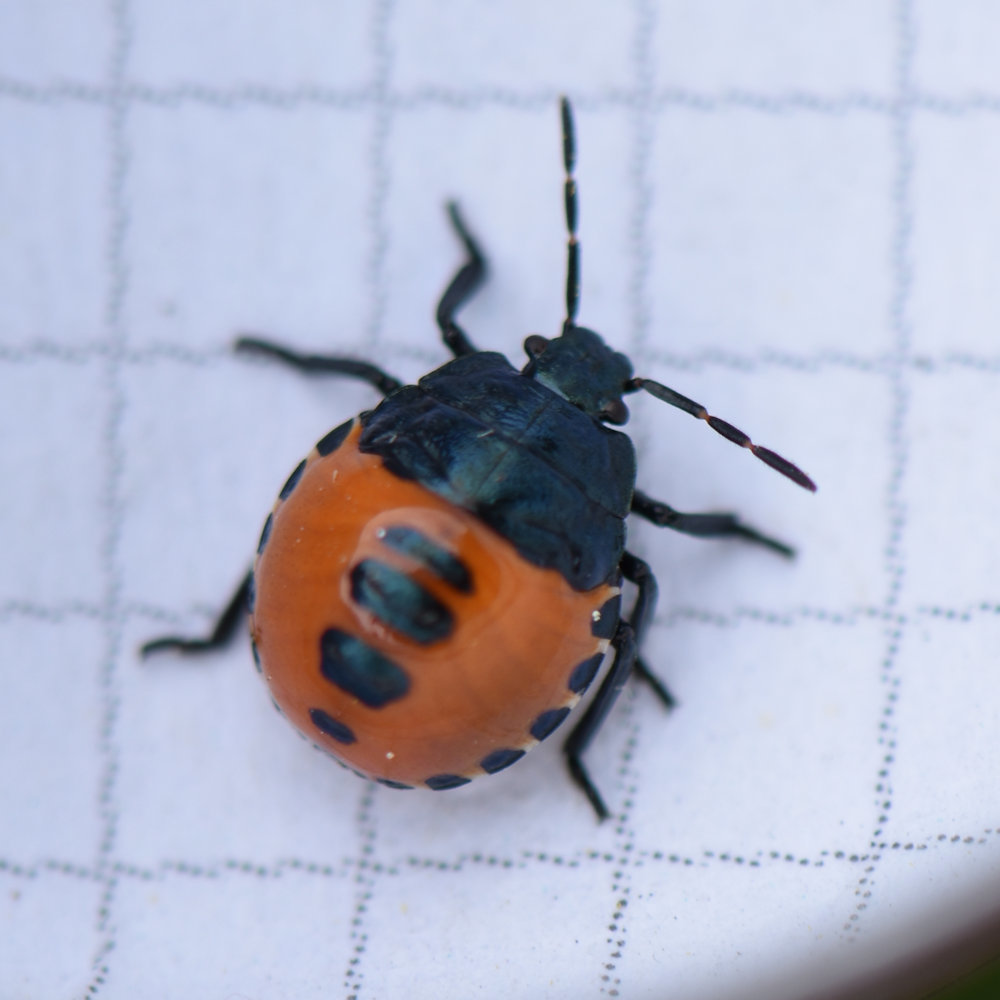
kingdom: Animalia
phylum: Arthropoda
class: Insecta
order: Hemiptera
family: Cydnidae
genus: Sehirus
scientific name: Sehirus cinctus
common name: White-margined burrower bug
